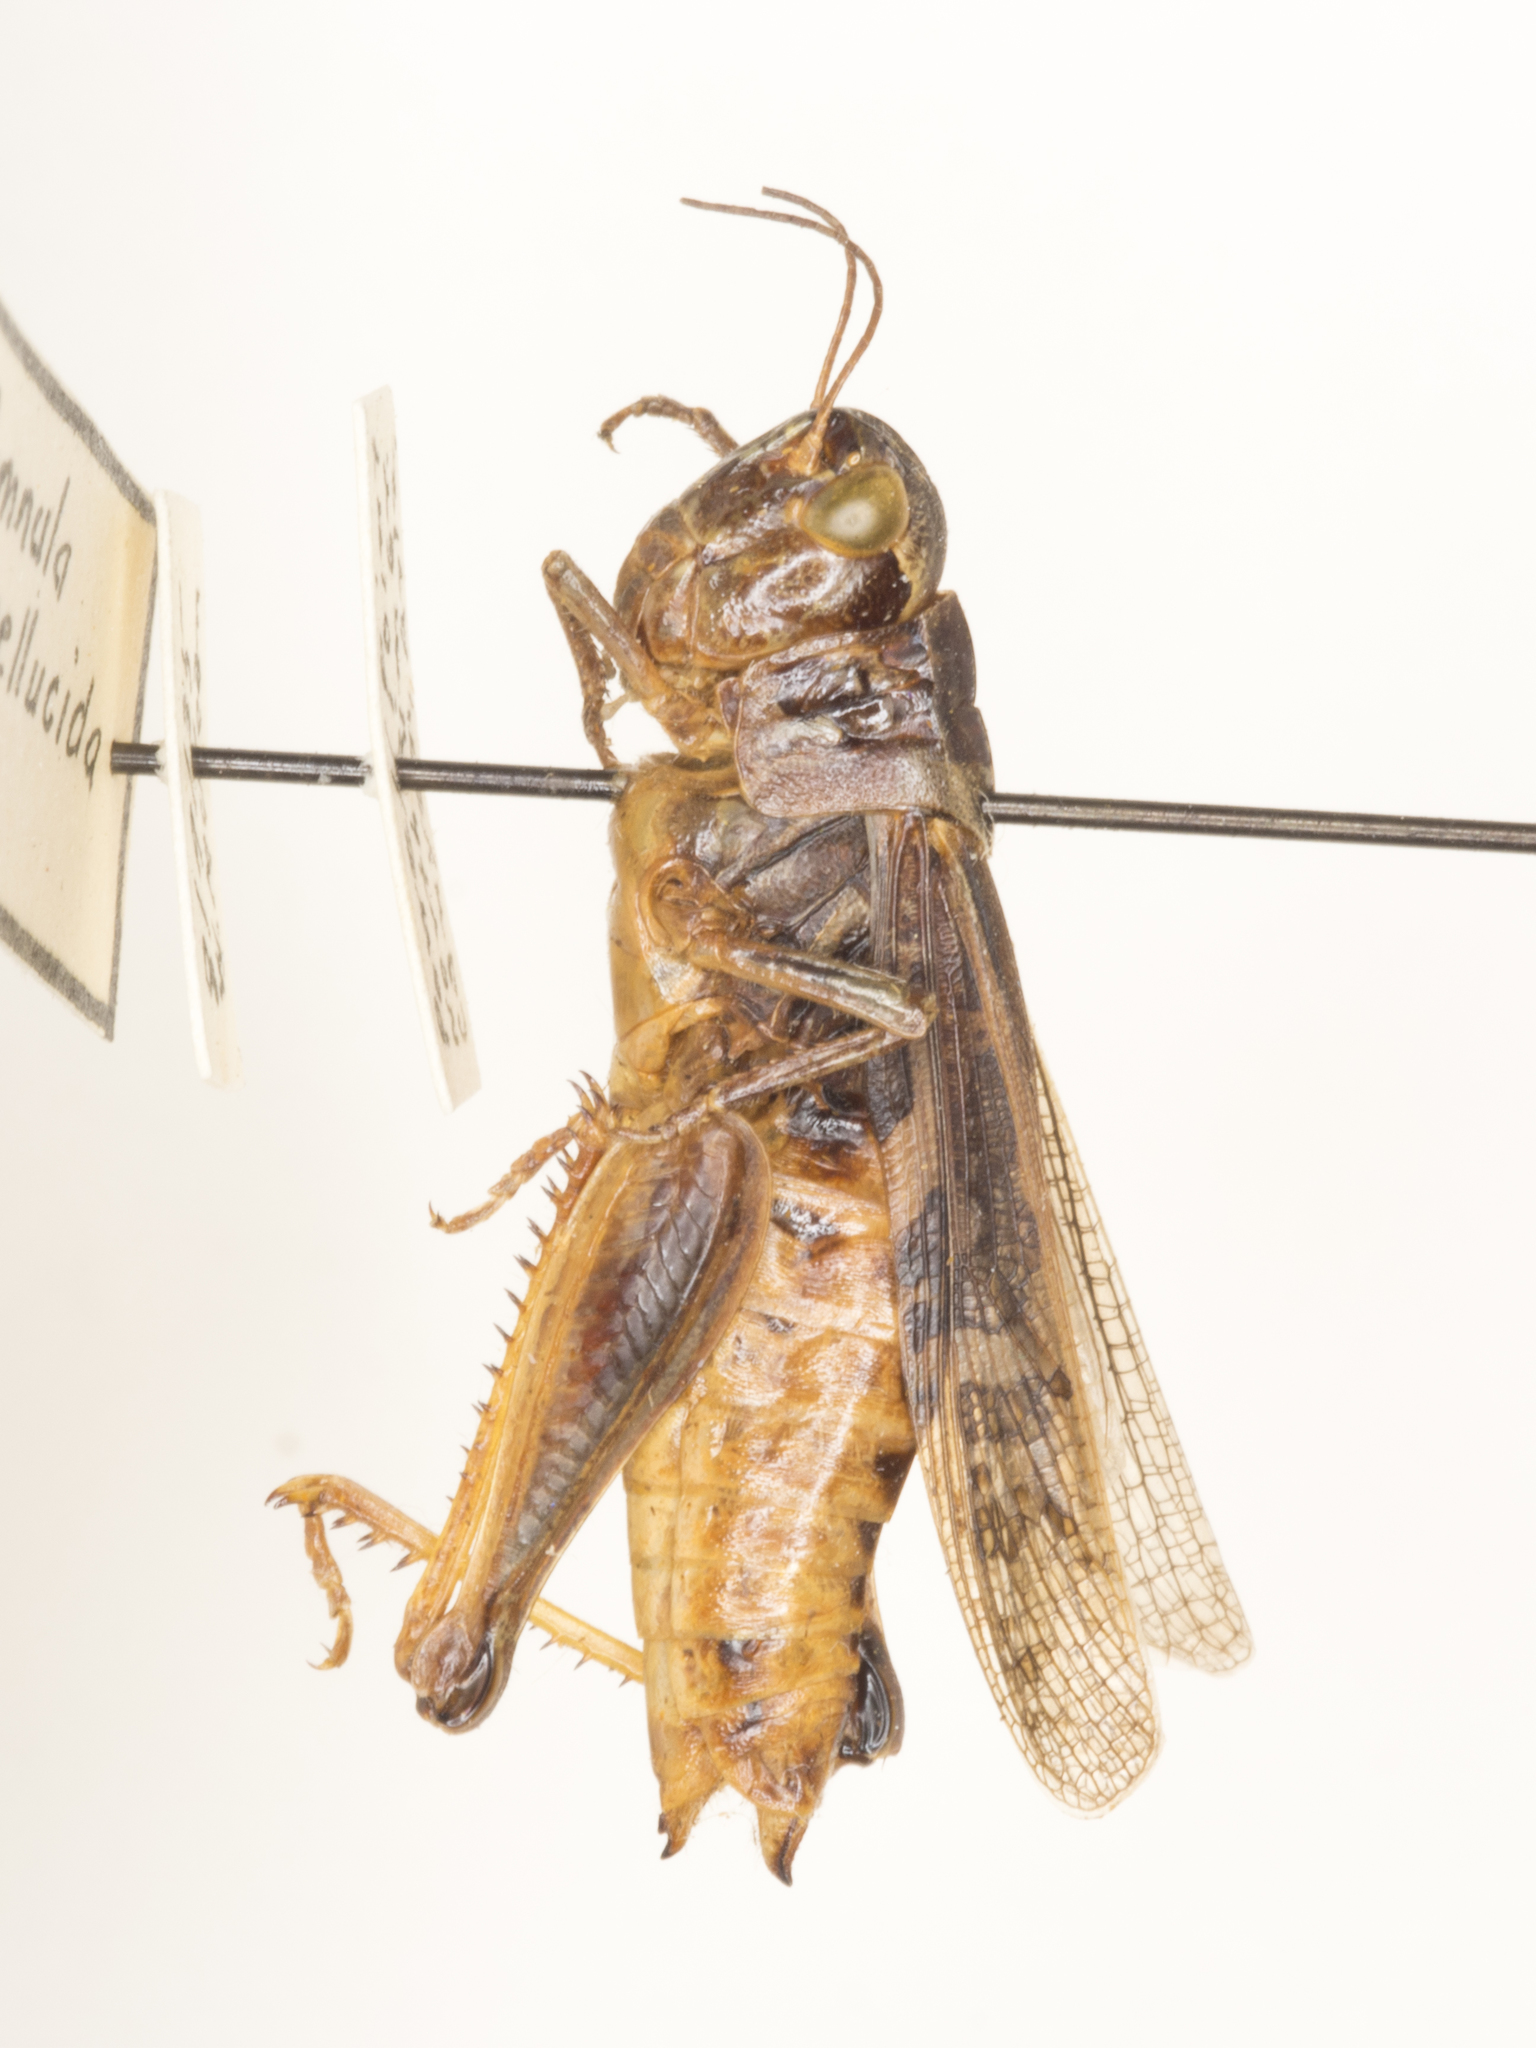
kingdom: Animalia
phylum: Arthropoda
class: Insecta
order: Orthoptera
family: Acrididae
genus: Camnula
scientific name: Camnula pellucida
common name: Clear-winged grasshopper
